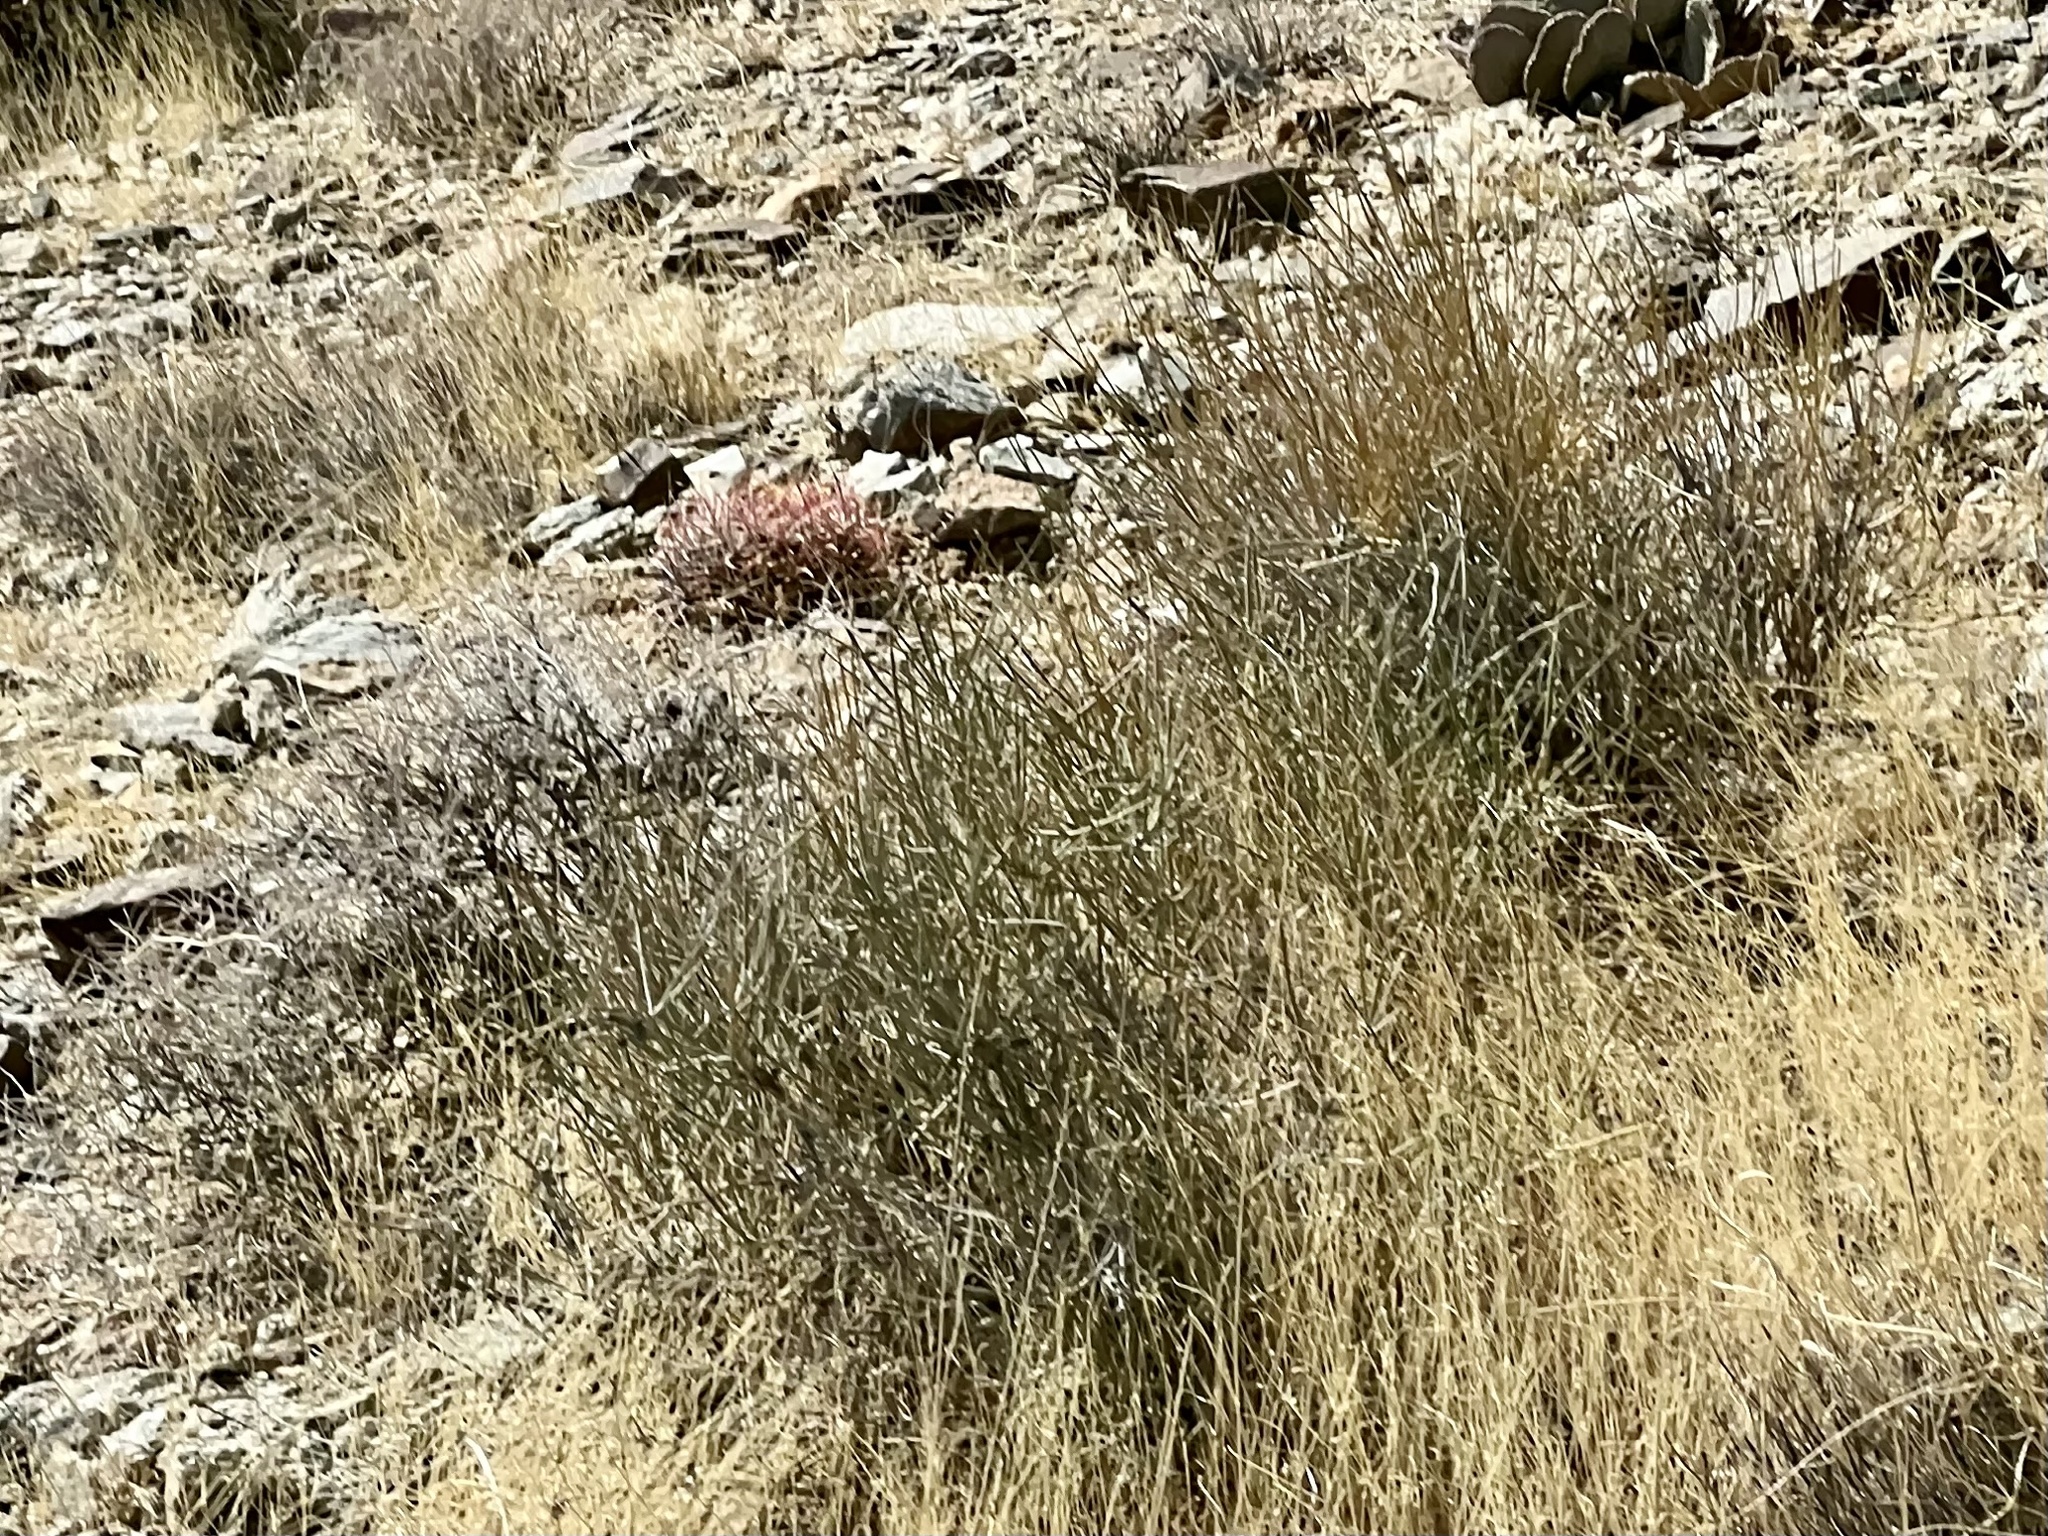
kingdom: Plantae
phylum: Tracheophyta
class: Gnetopsida
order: Ephedrales
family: Ephedraceae
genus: Ephedra
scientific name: Ephedra nevadensis
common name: Gray ephedra
